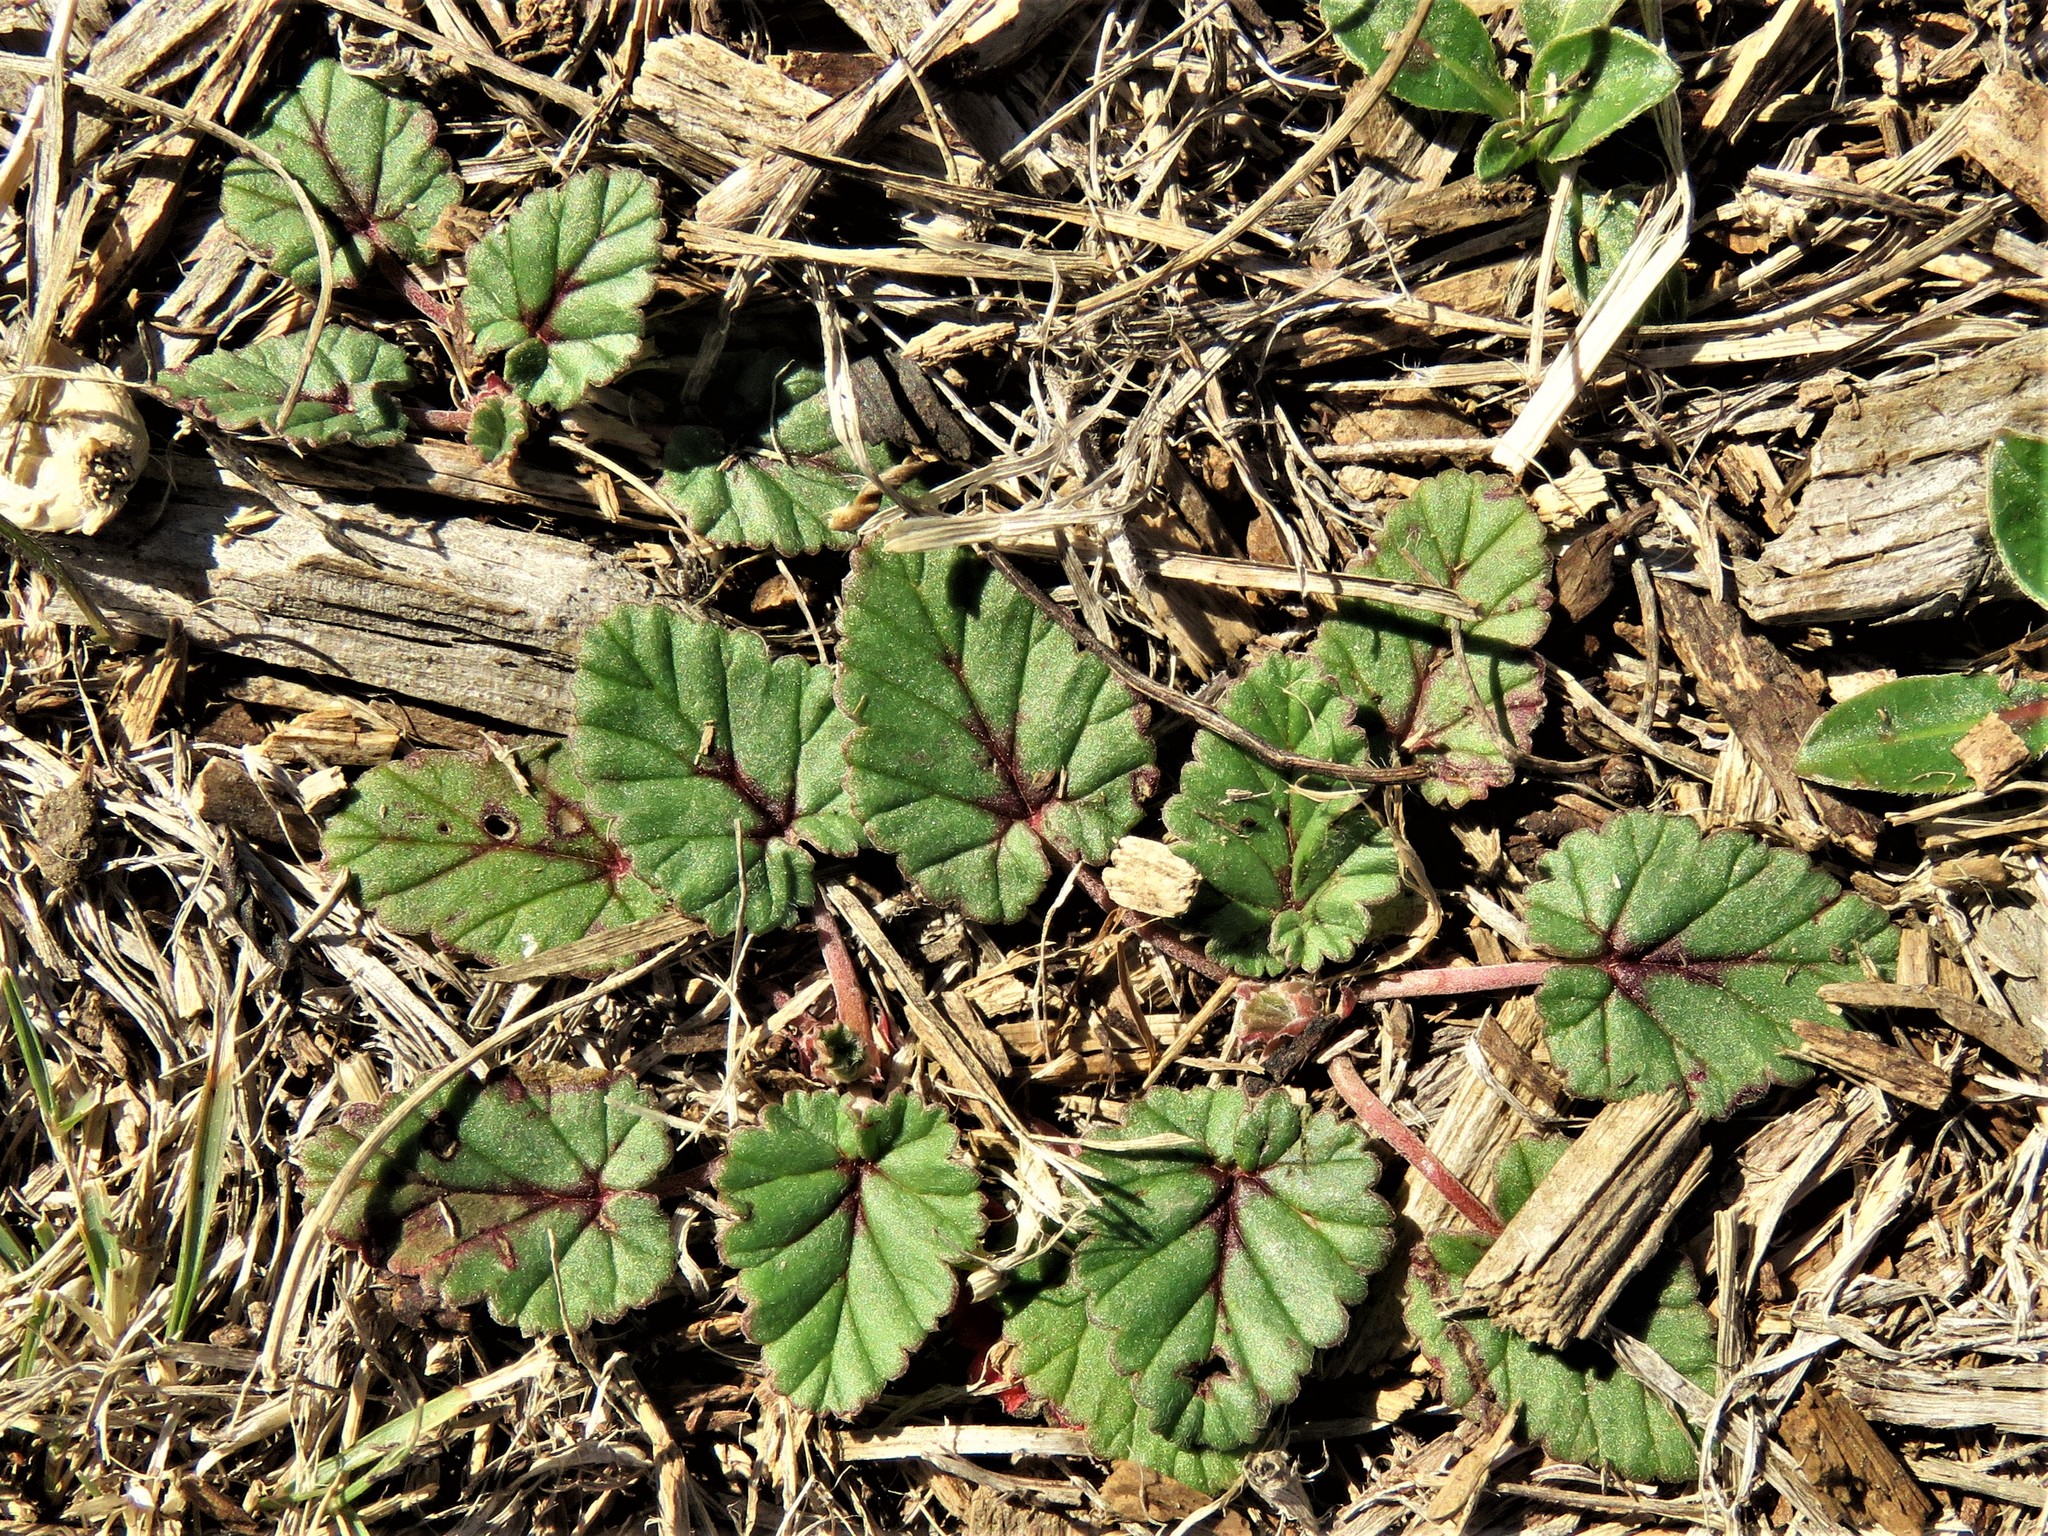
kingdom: Plantae
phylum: Tracheophyta
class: Magnoliopsida
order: Geraniales
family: Geraniaceae
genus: Erodium
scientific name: Erodium texanum
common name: Texas stork's-bill
